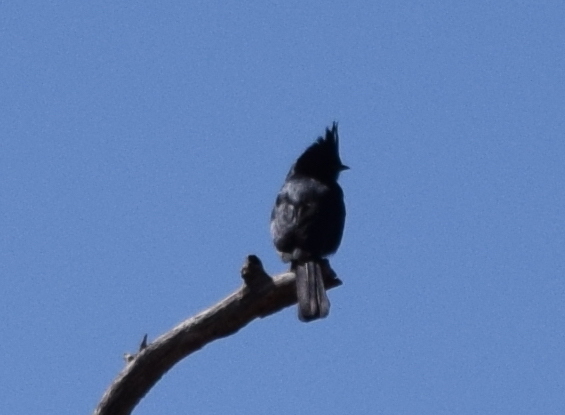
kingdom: Animalia
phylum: Chordata
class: Aves
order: Passeriformes
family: Ptilogonatidae
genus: Phainopepla
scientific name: Phainopepla nitens
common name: Phainopepla
